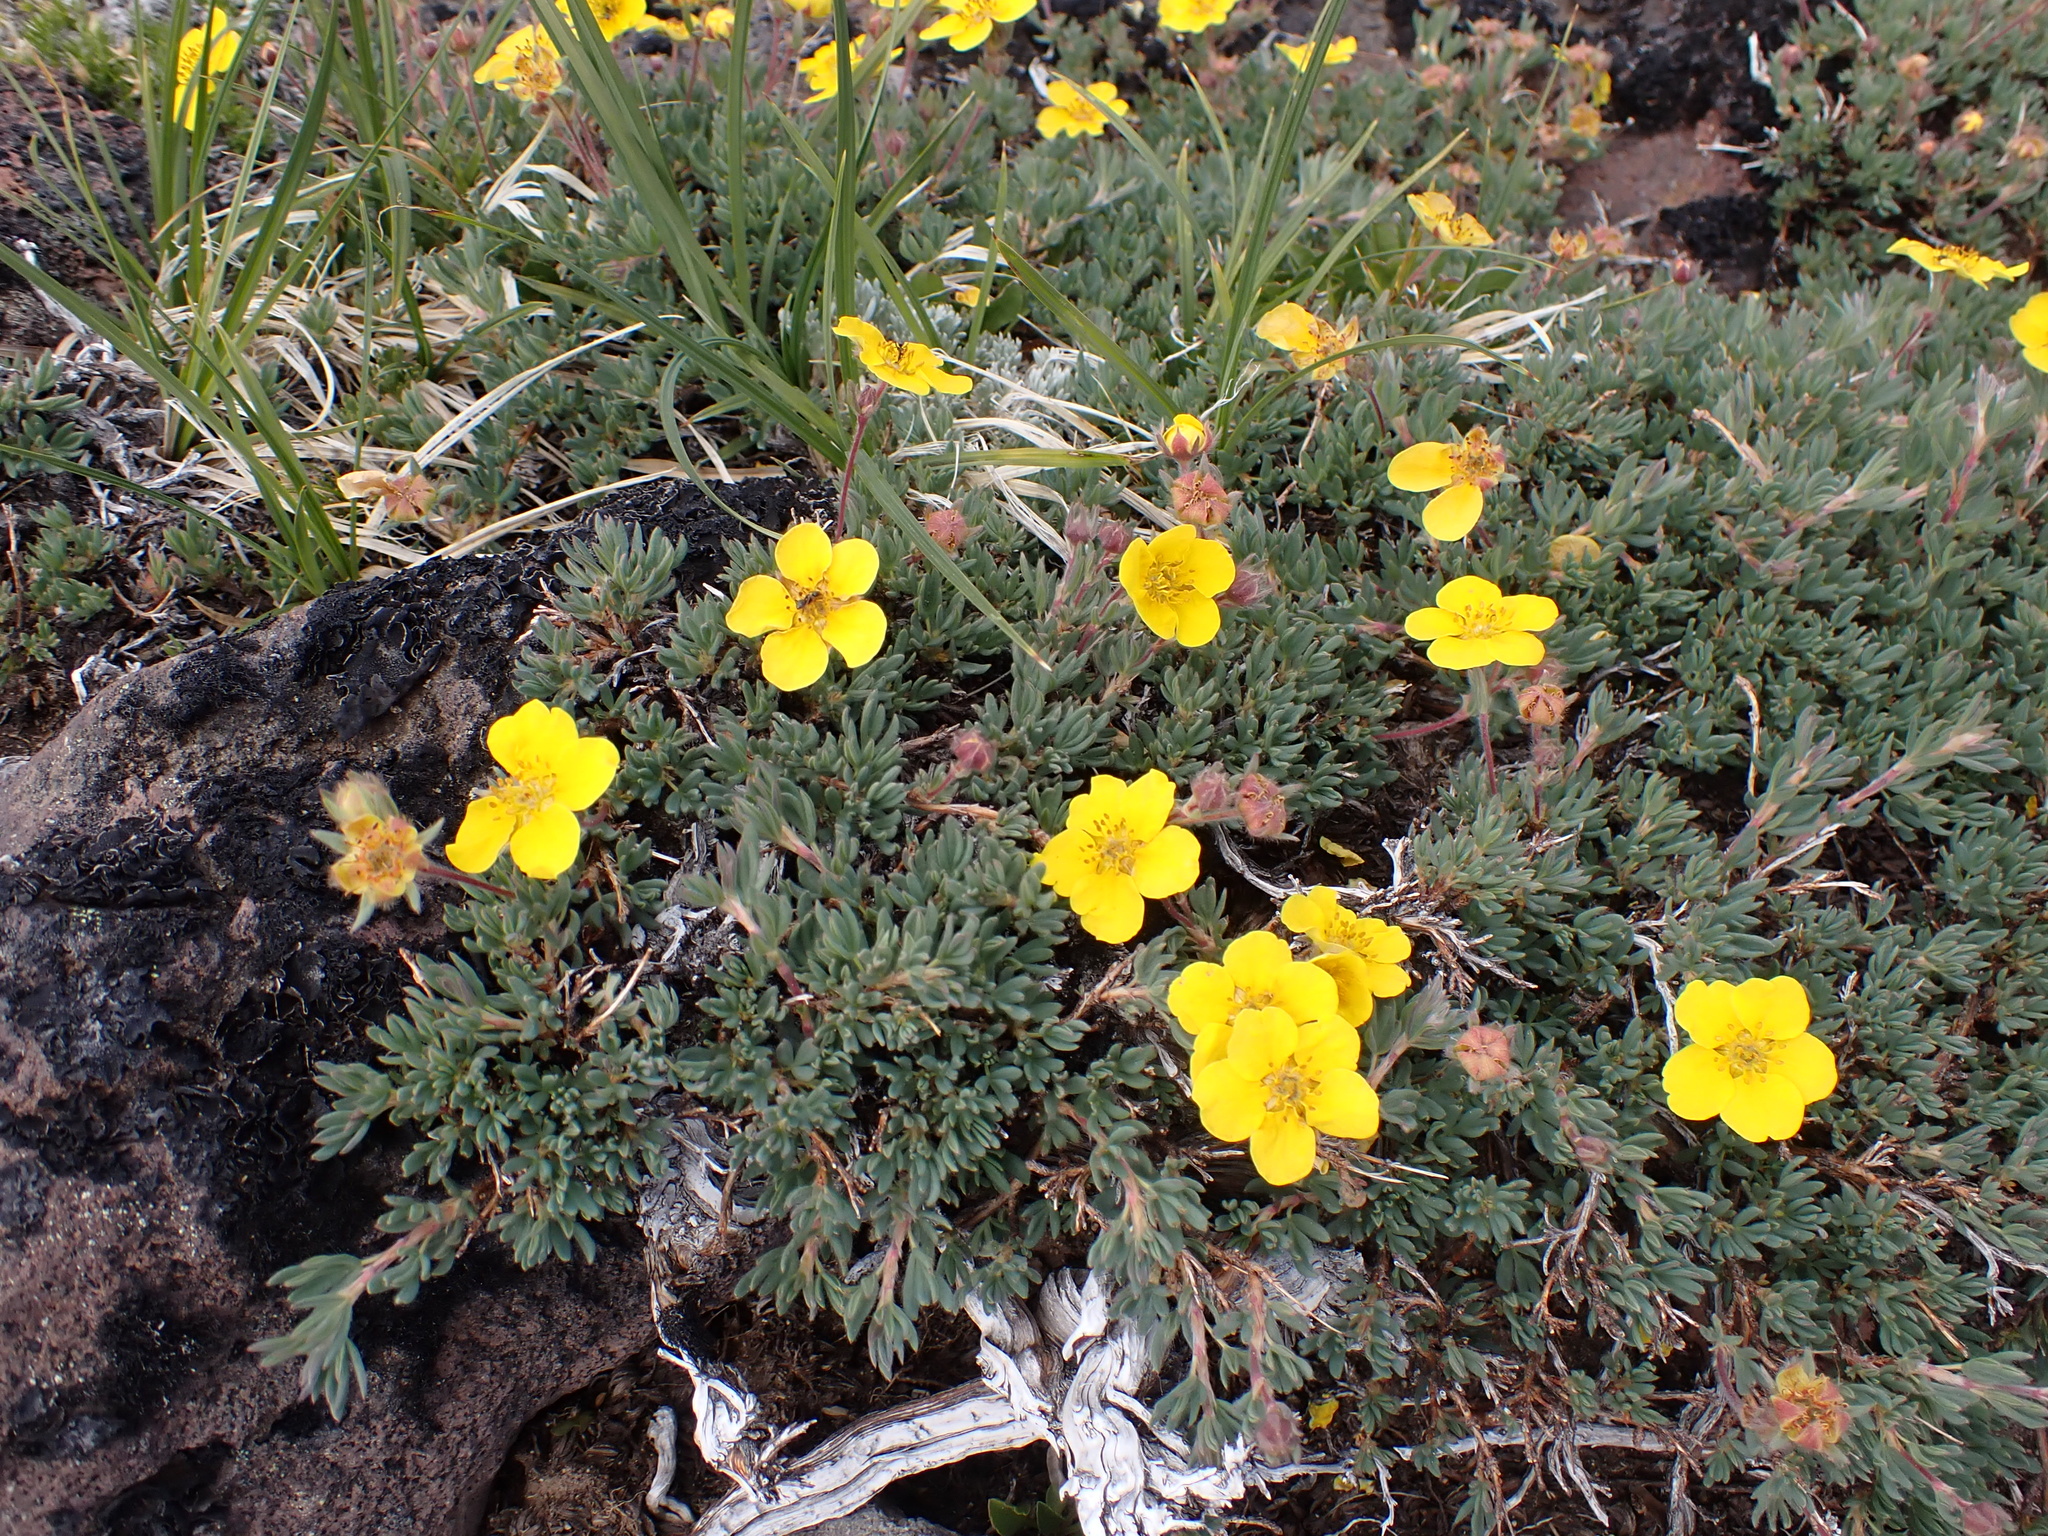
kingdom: Plantae
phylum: Tracheophyta
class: Magnoliopsida
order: Rosales
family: Rosaceae
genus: Dasiphora
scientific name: Dasiphora fruticosa
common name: Shrubby cinquefoil
